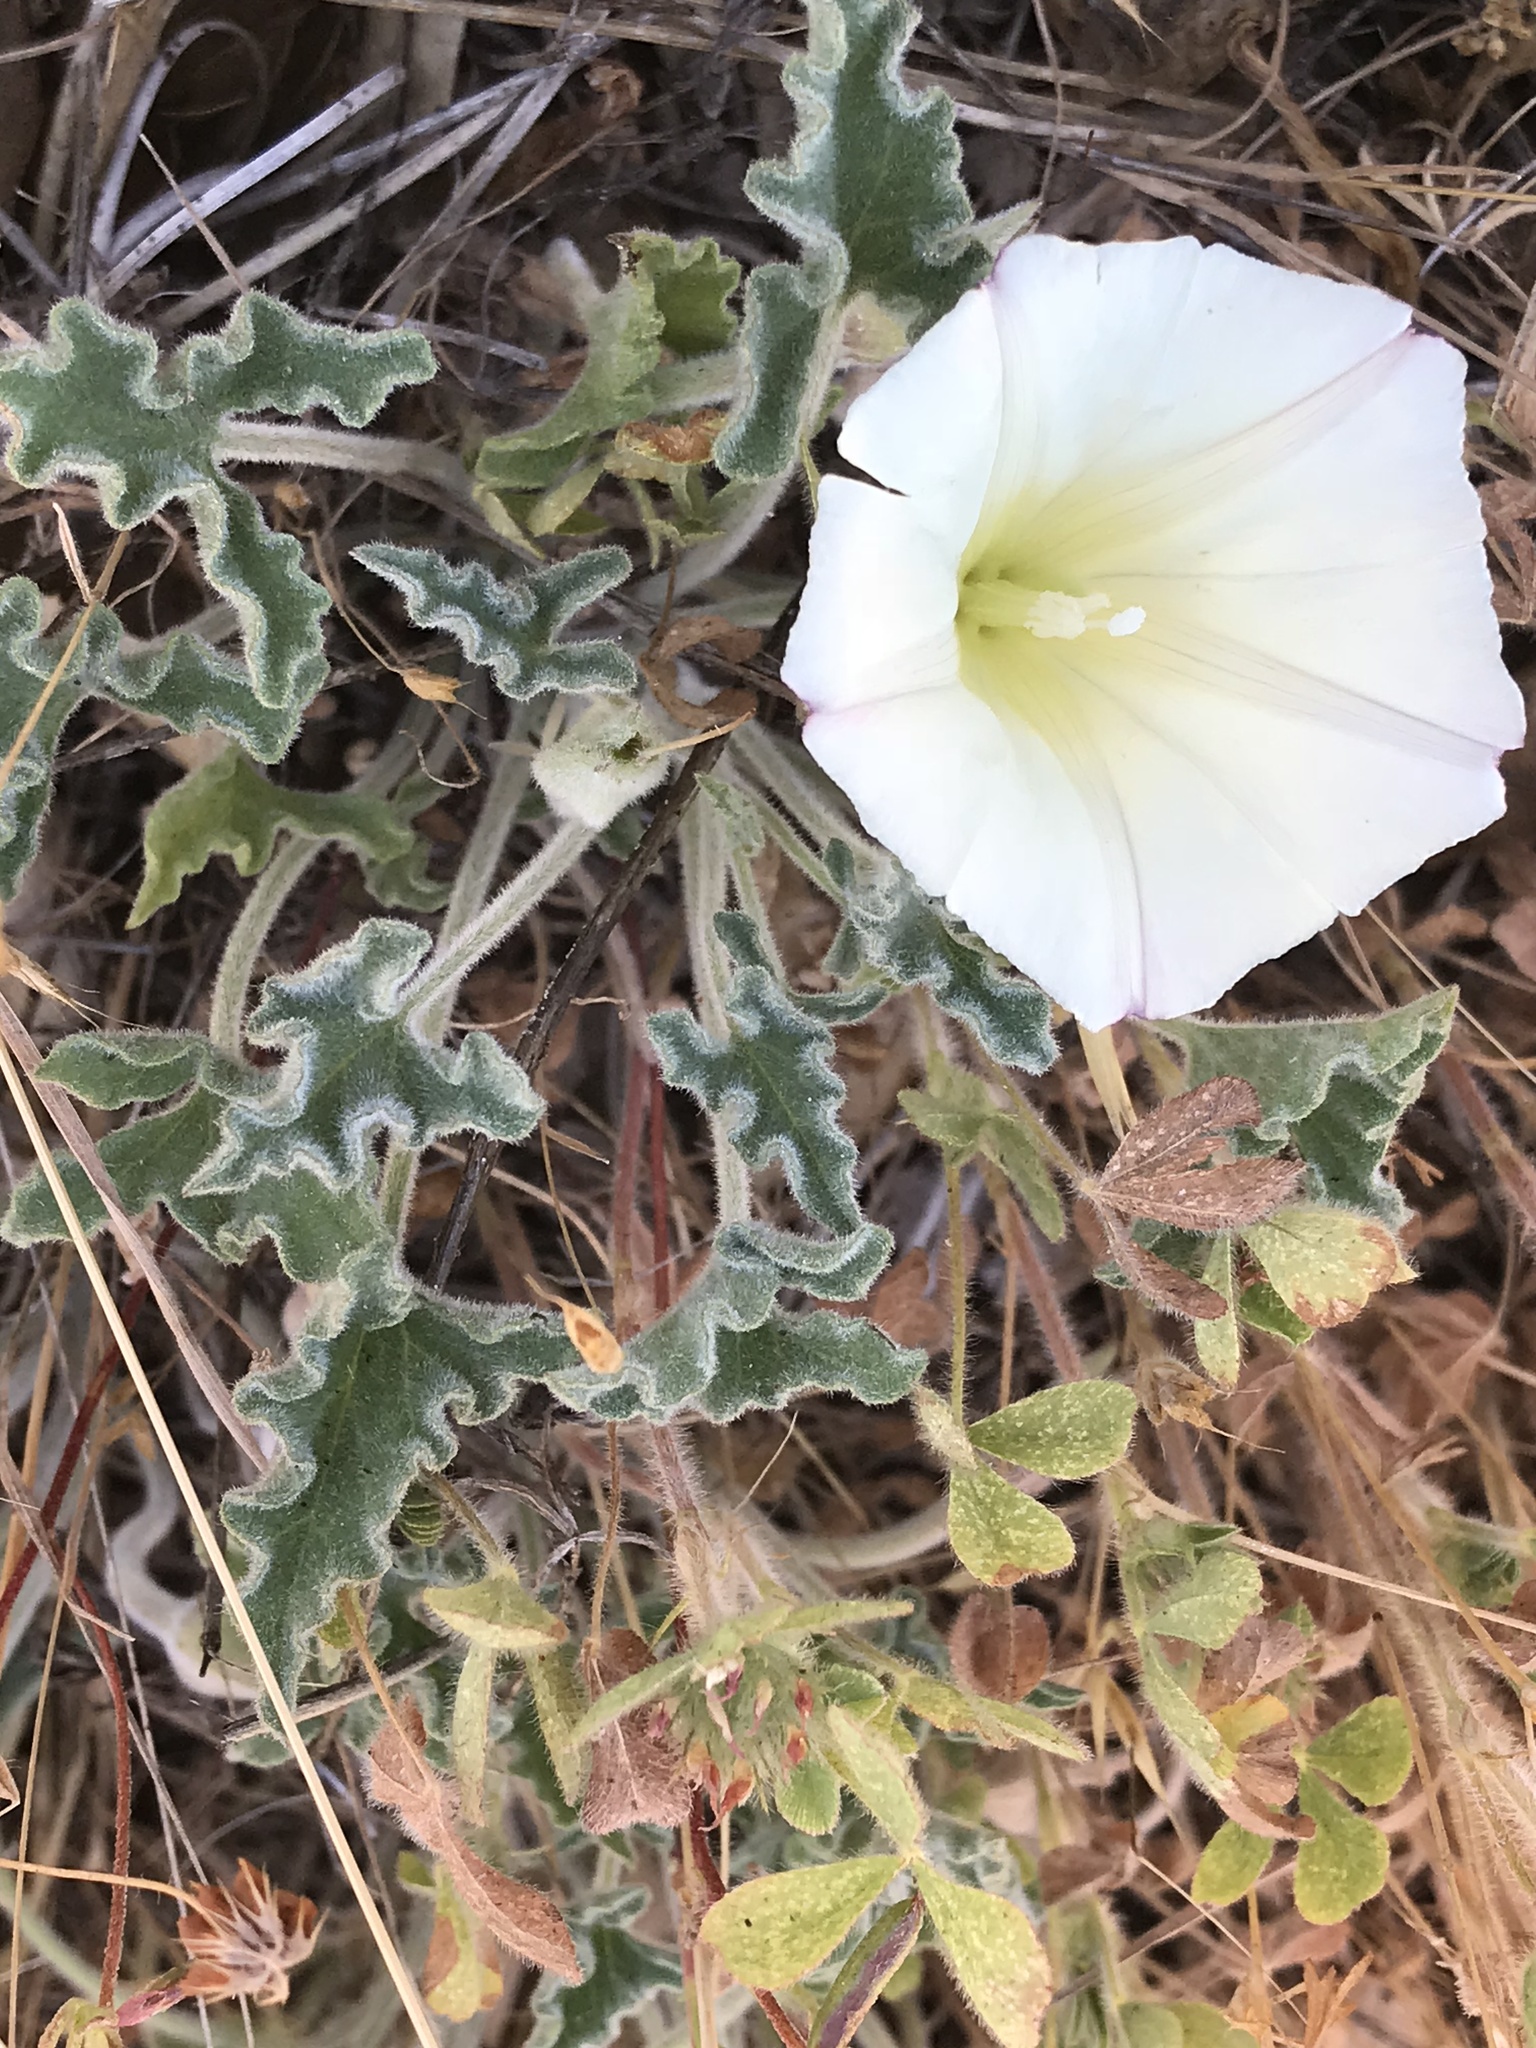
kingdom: Plantae
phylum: Tracheophyta
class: Magnoliopsida
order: Solanales
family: Convolvulaceae
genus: Calystegia
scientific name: Calystegia collina
